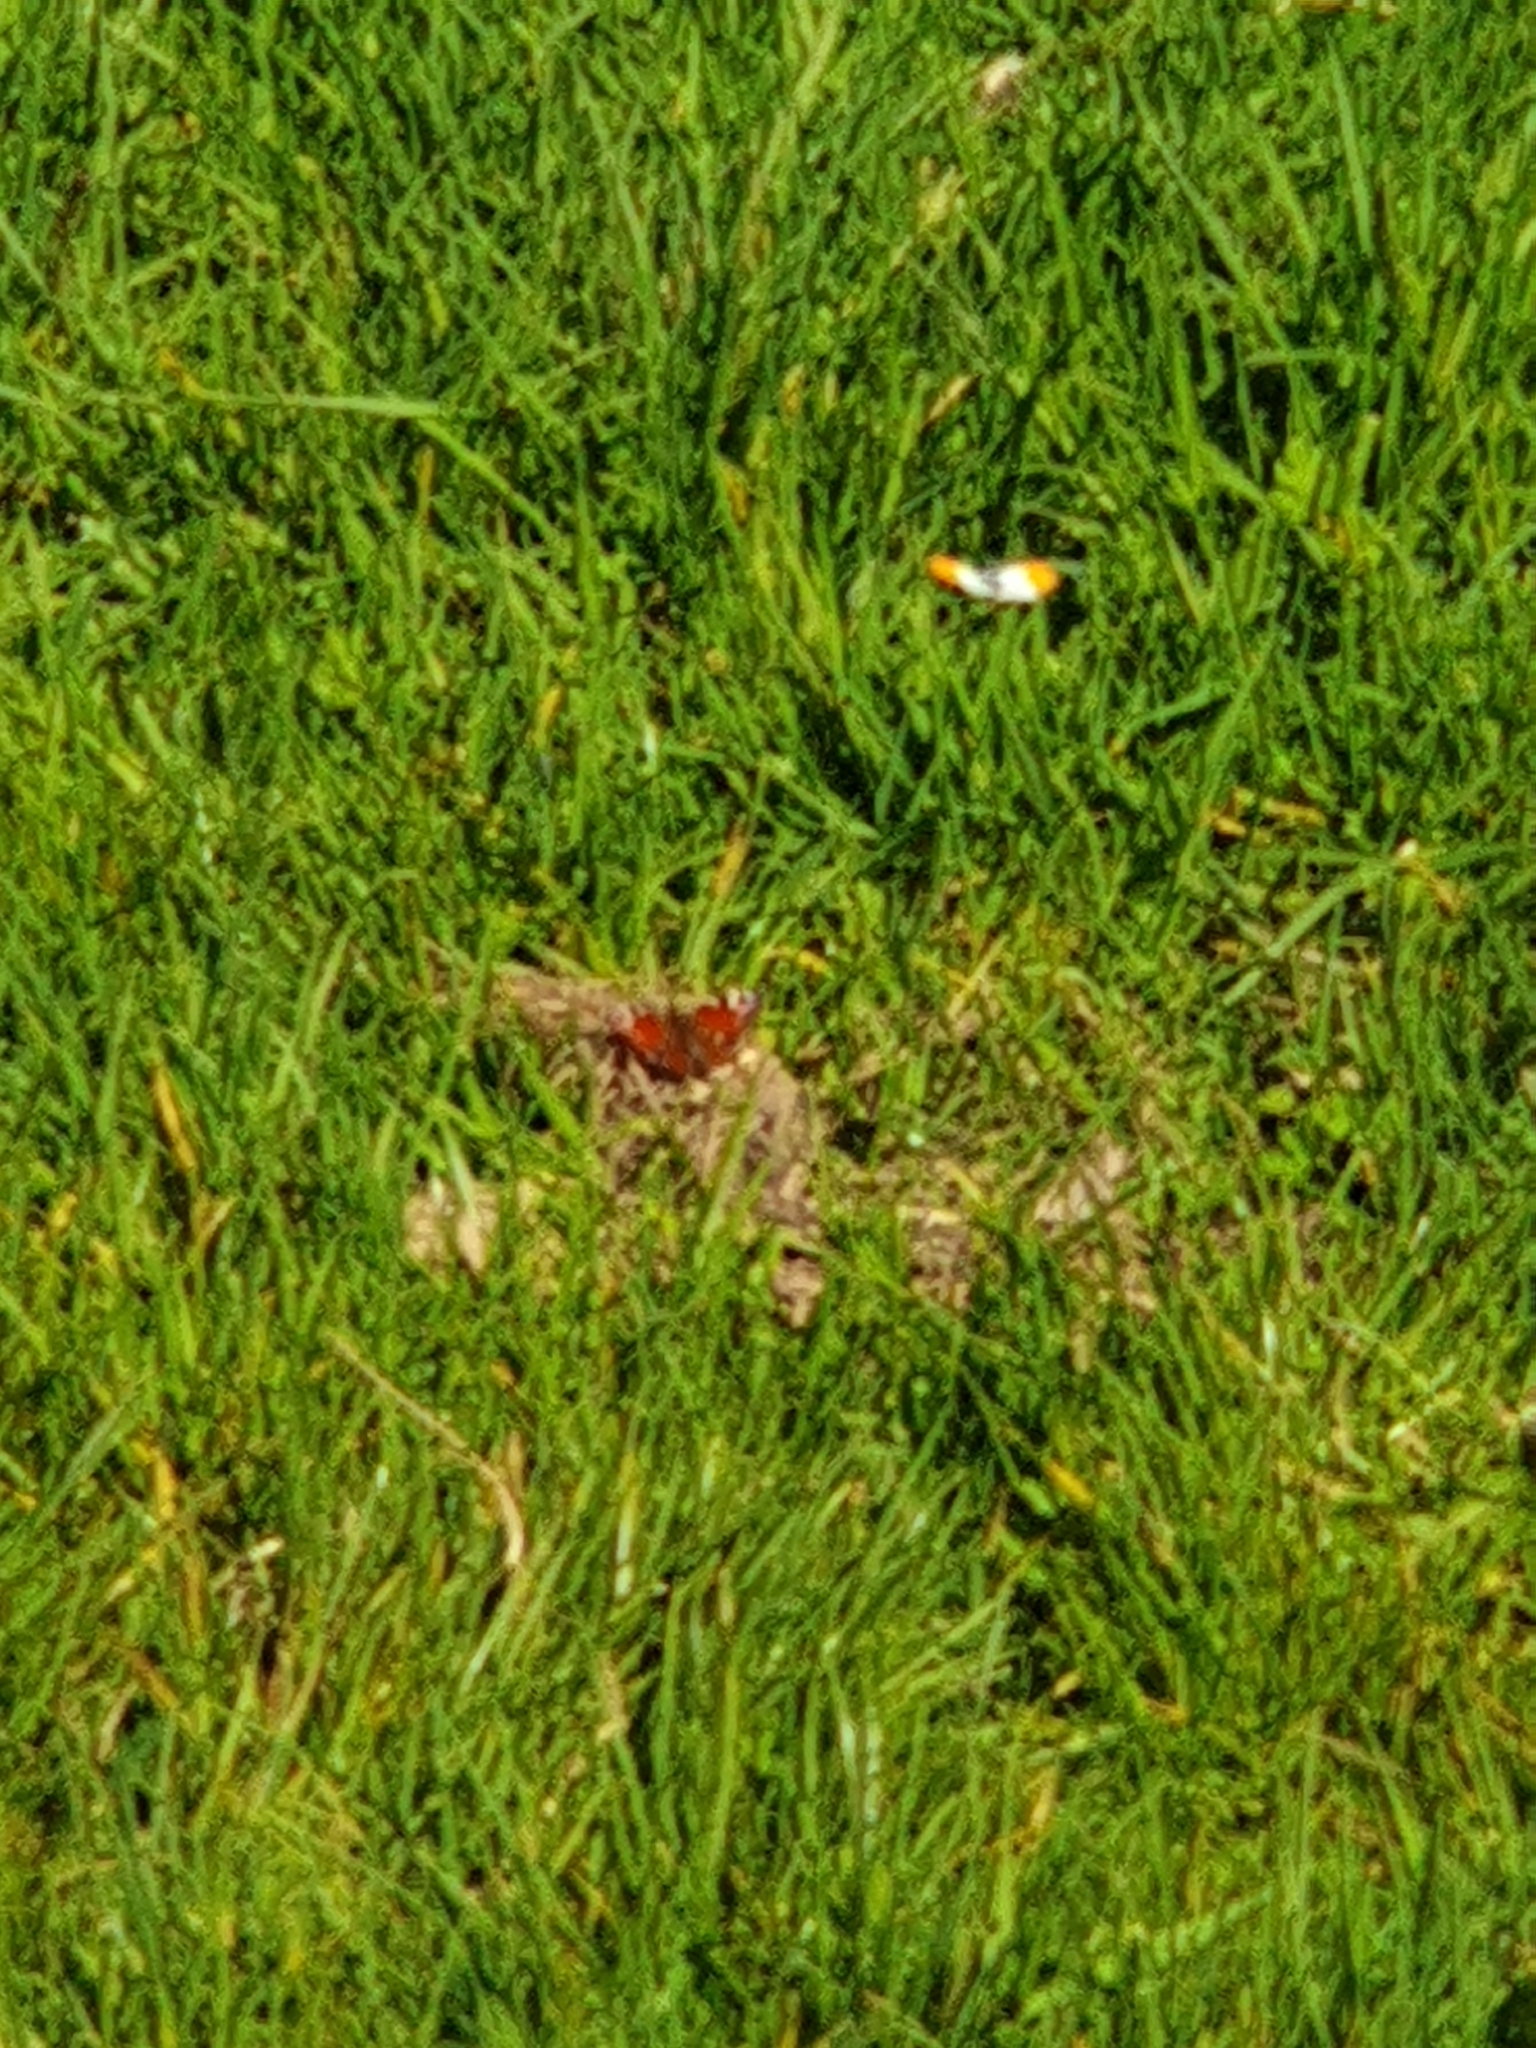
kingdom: Animalia
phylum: Arthropoda
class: Insecta
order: Lepidoptera
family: Nymphalidae
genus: Aglais
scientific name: Aglais io
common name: Peacock
